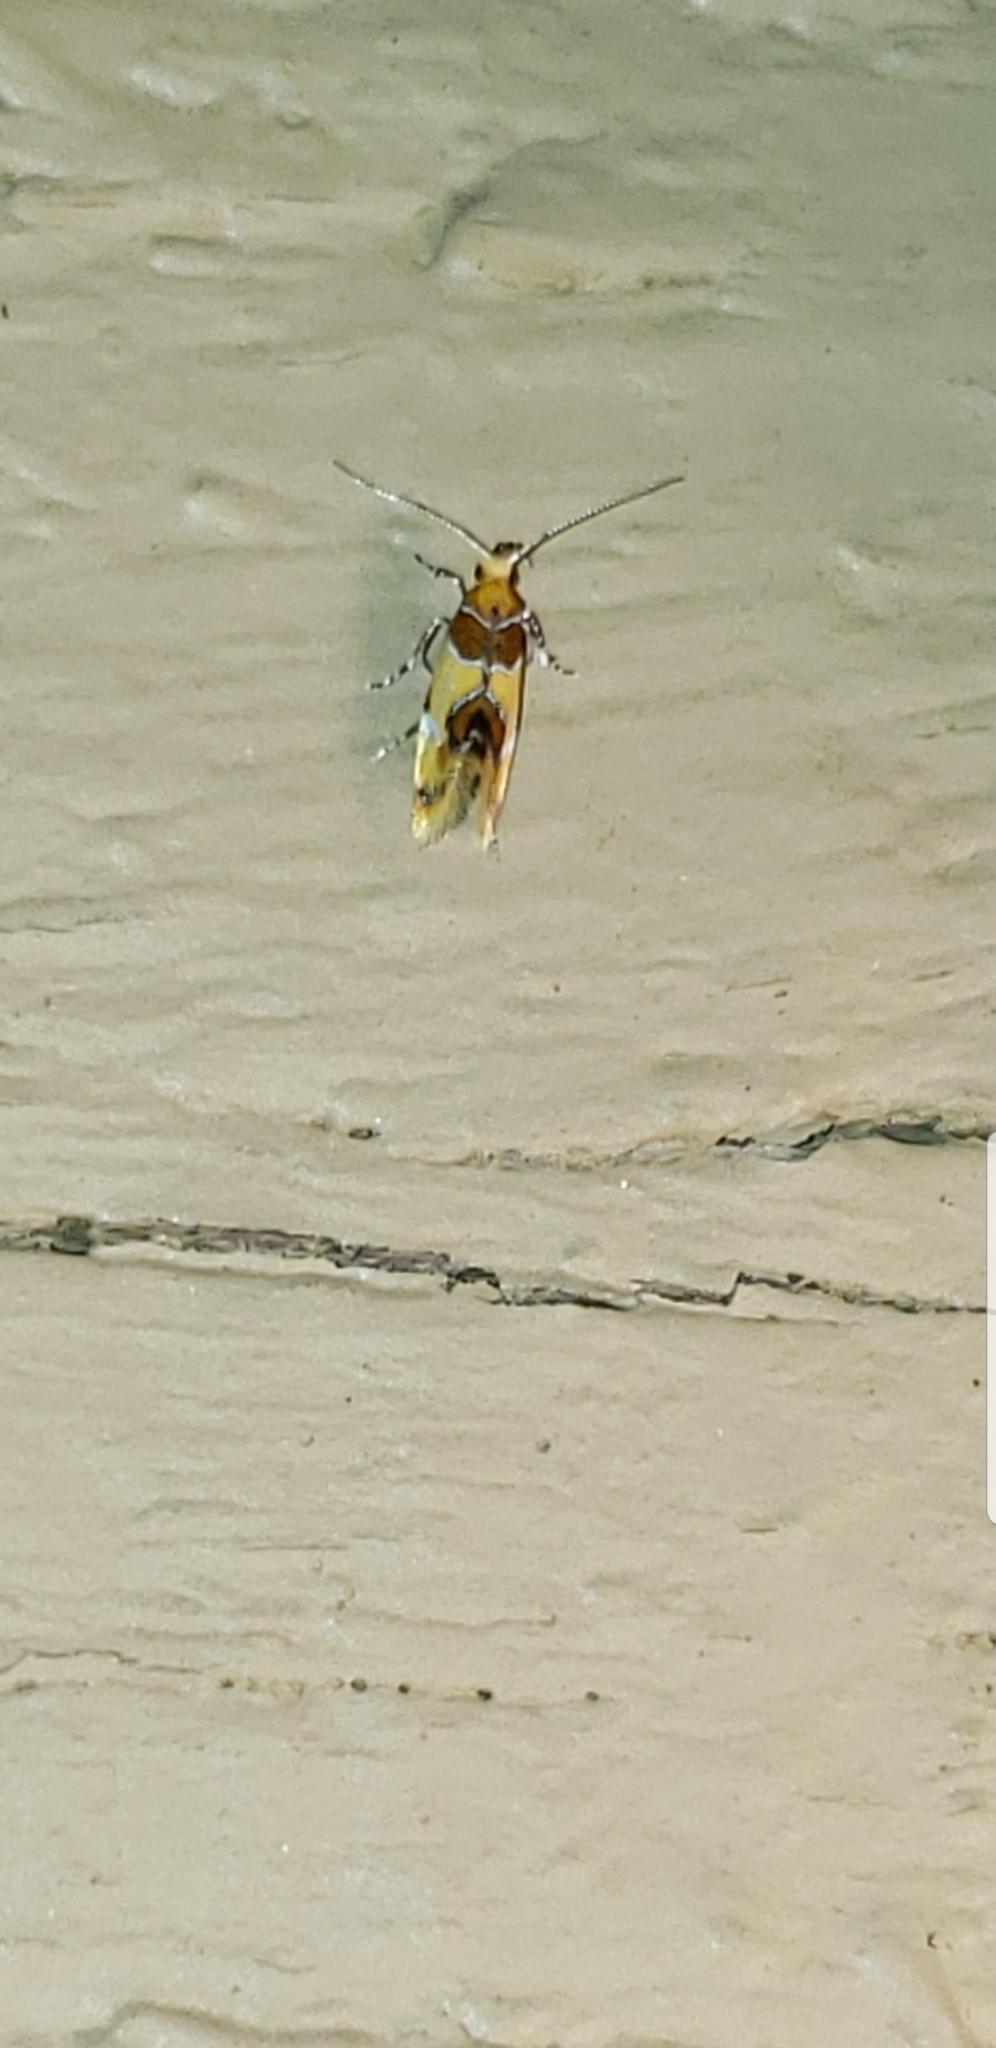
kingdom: Animalia
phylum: Arthropoda
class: Insecta
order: Lepidoptera
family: Oecophoridae
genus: Callima
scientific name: Callima argenticinctella
